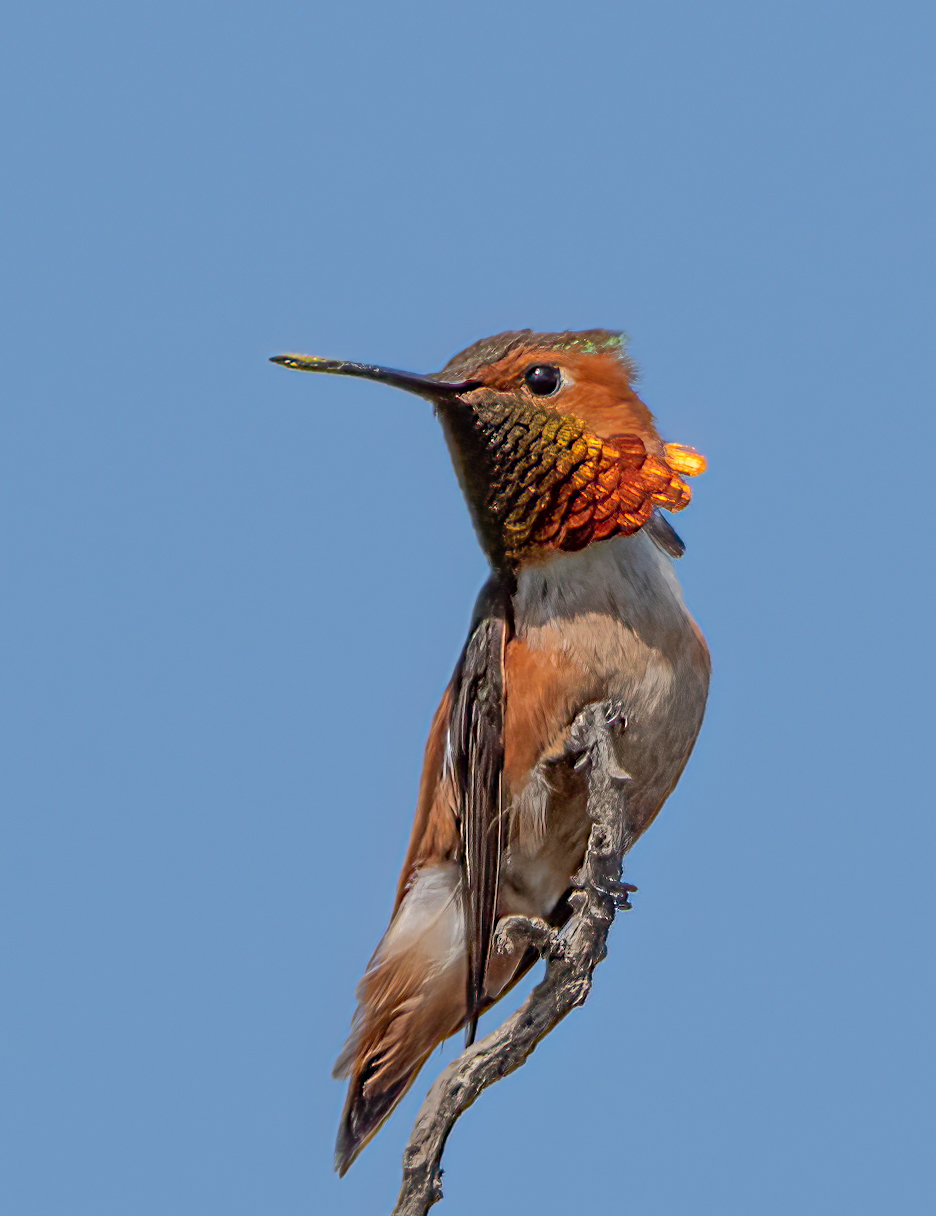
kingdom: Animalia
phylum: Chordata
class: Aves
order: Apodiformes
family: Trochilidae
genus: Selasphorus
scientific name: Selasphorus
